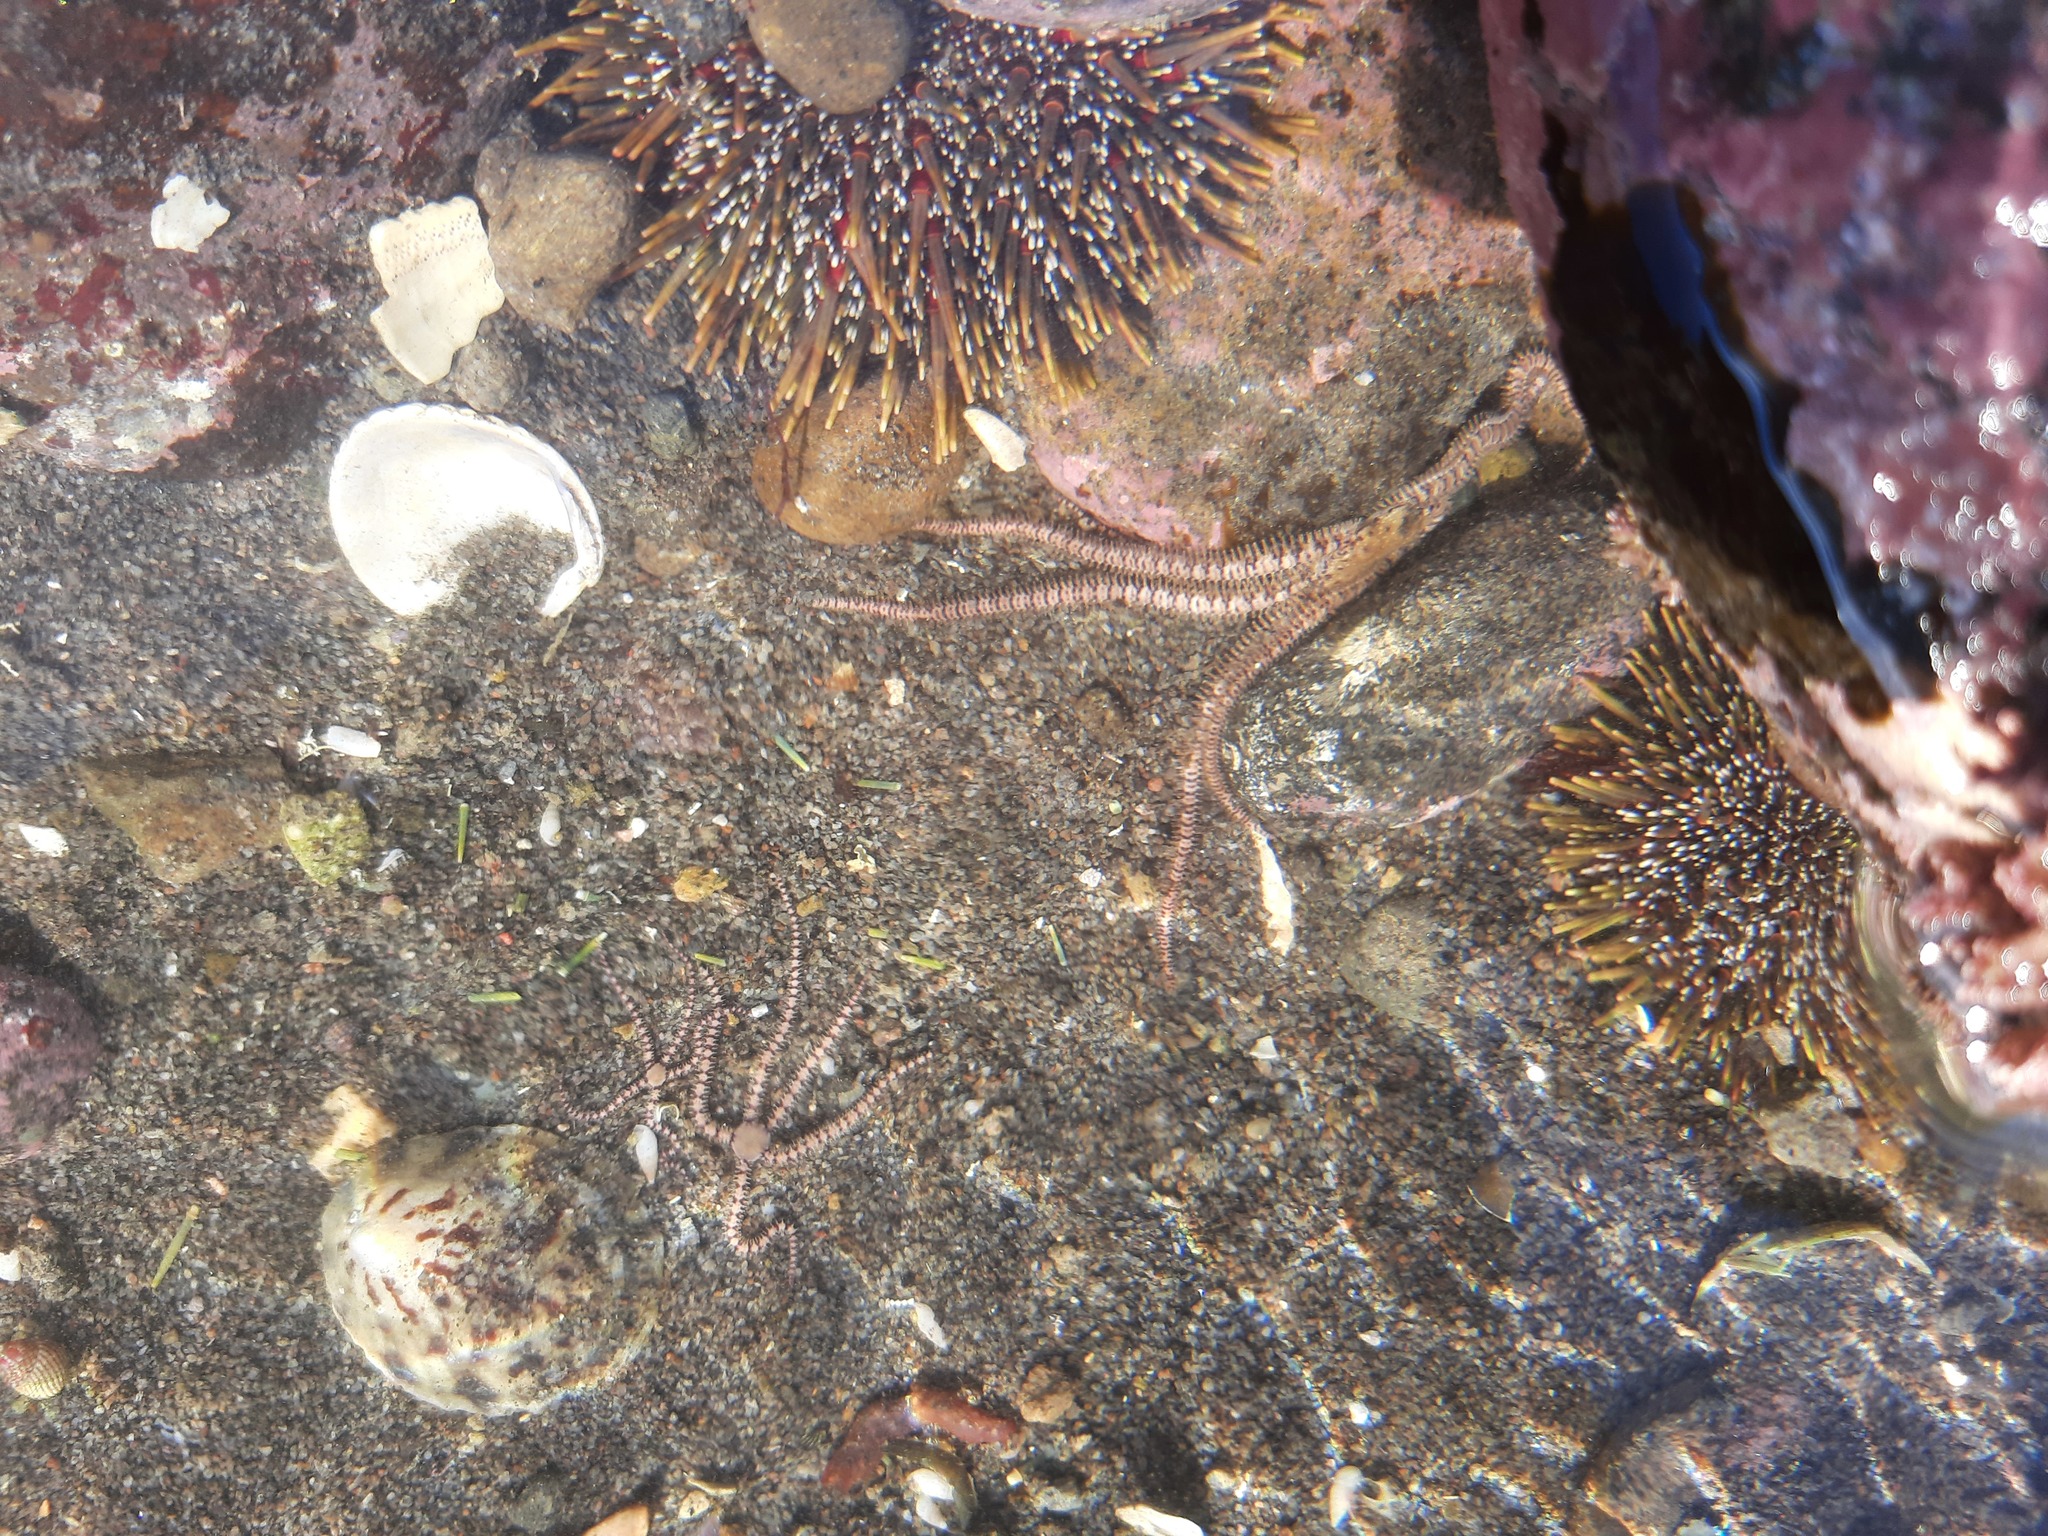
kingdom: Animalia
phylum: Echinodermata
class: Ophiuroidea
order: Amphilepidida
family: Ophionereididae
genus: Ophionereis
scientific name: Ophionereis fasciata
